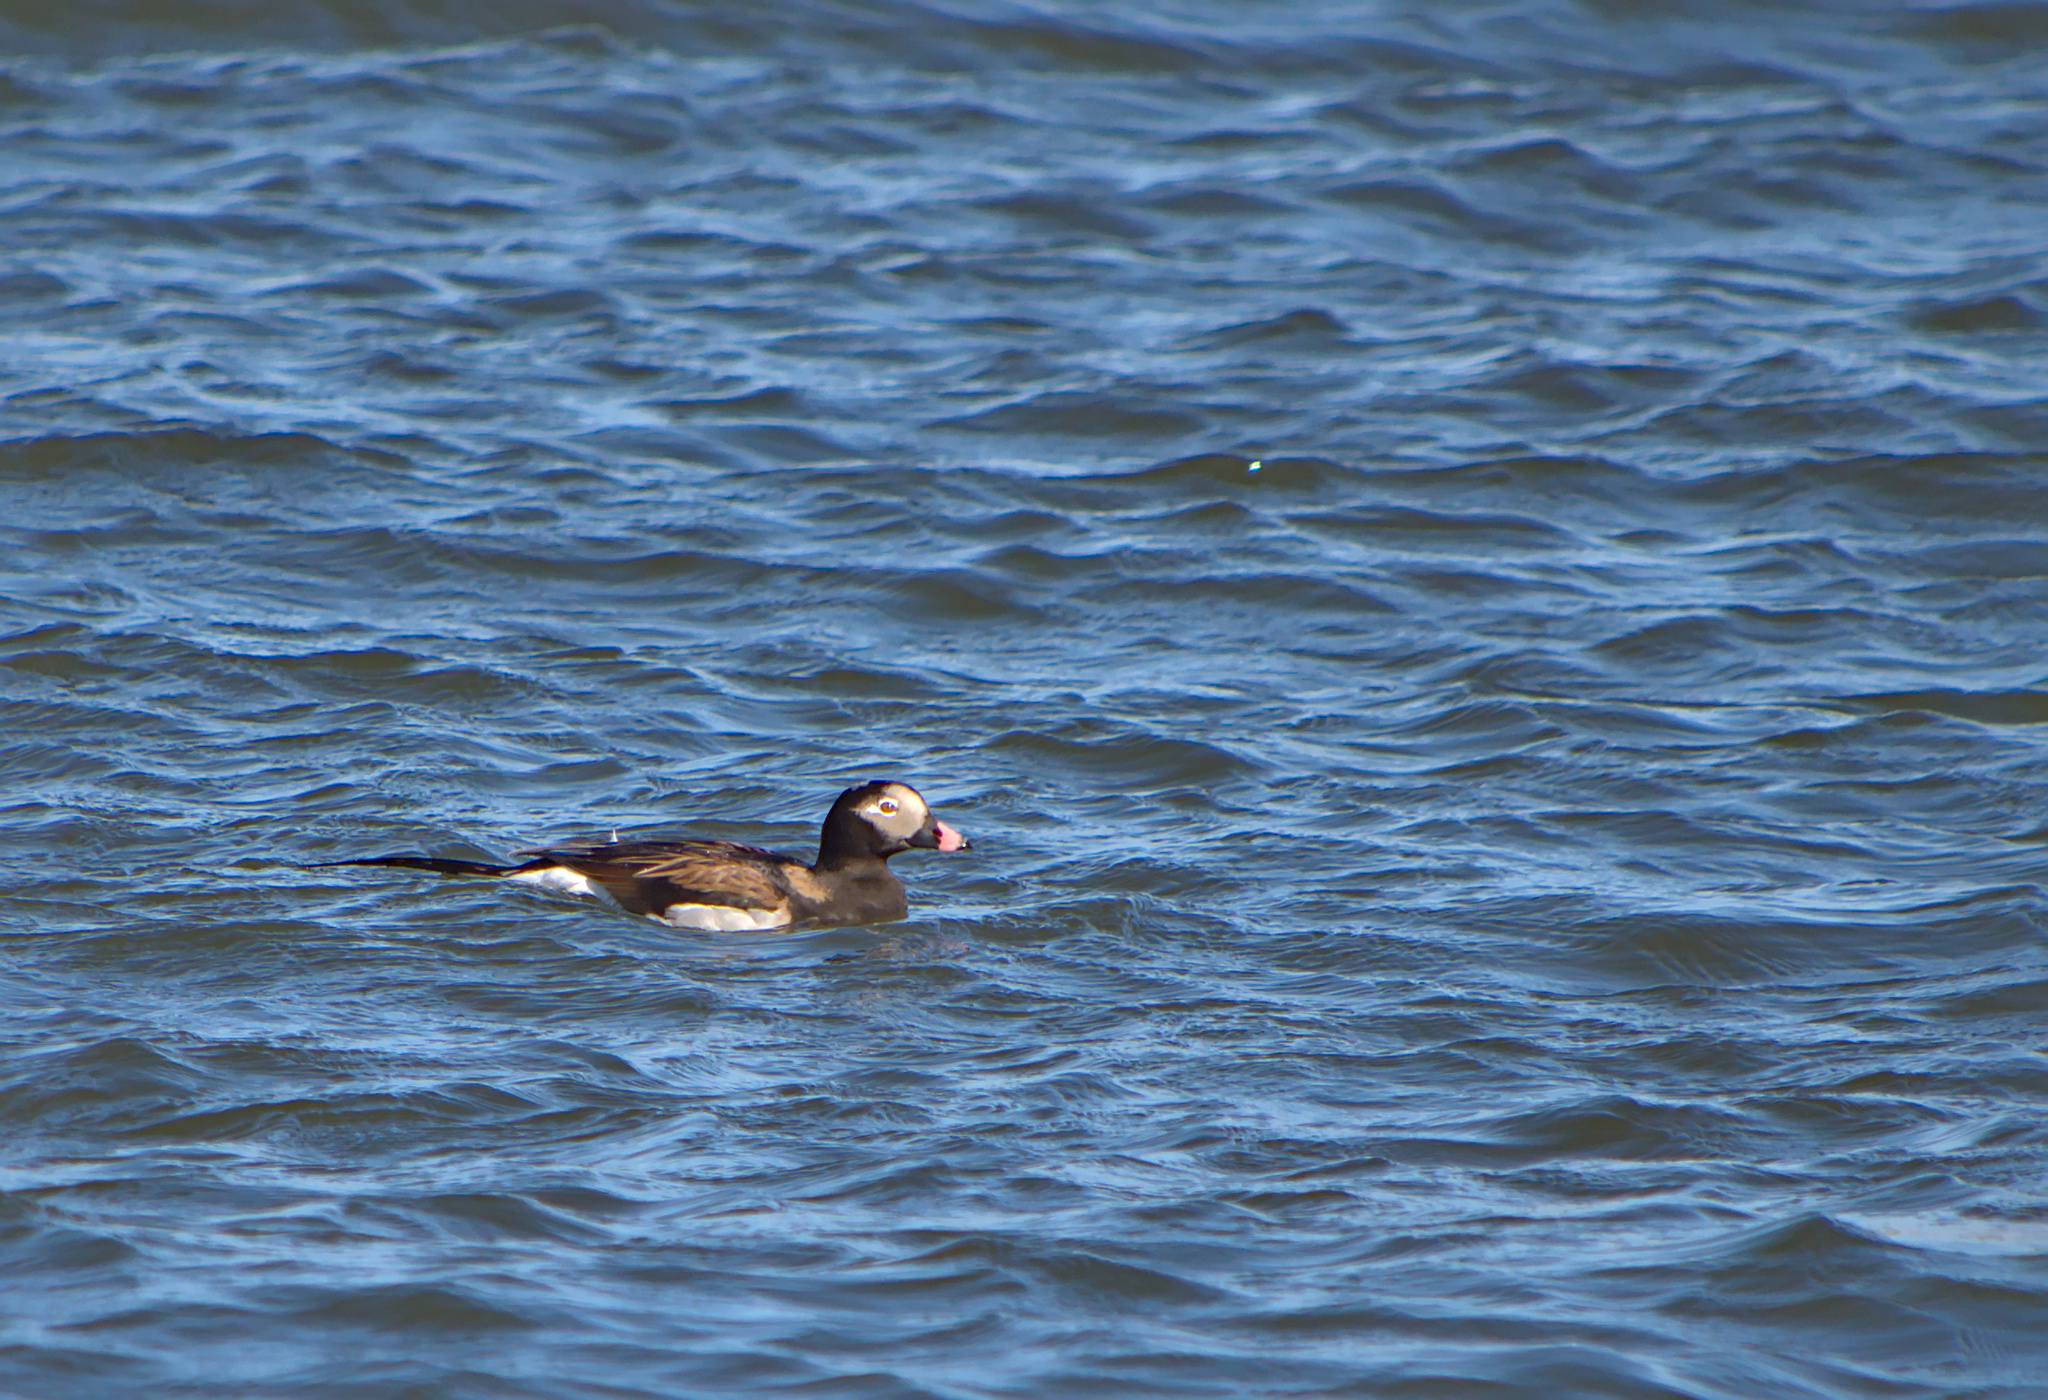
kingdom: Animalia
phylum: Chordata
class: Aves
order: Anseriformes
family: Anatidae
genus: Clangula
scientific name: Clangula hyemalis
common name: Long-tailed duck
